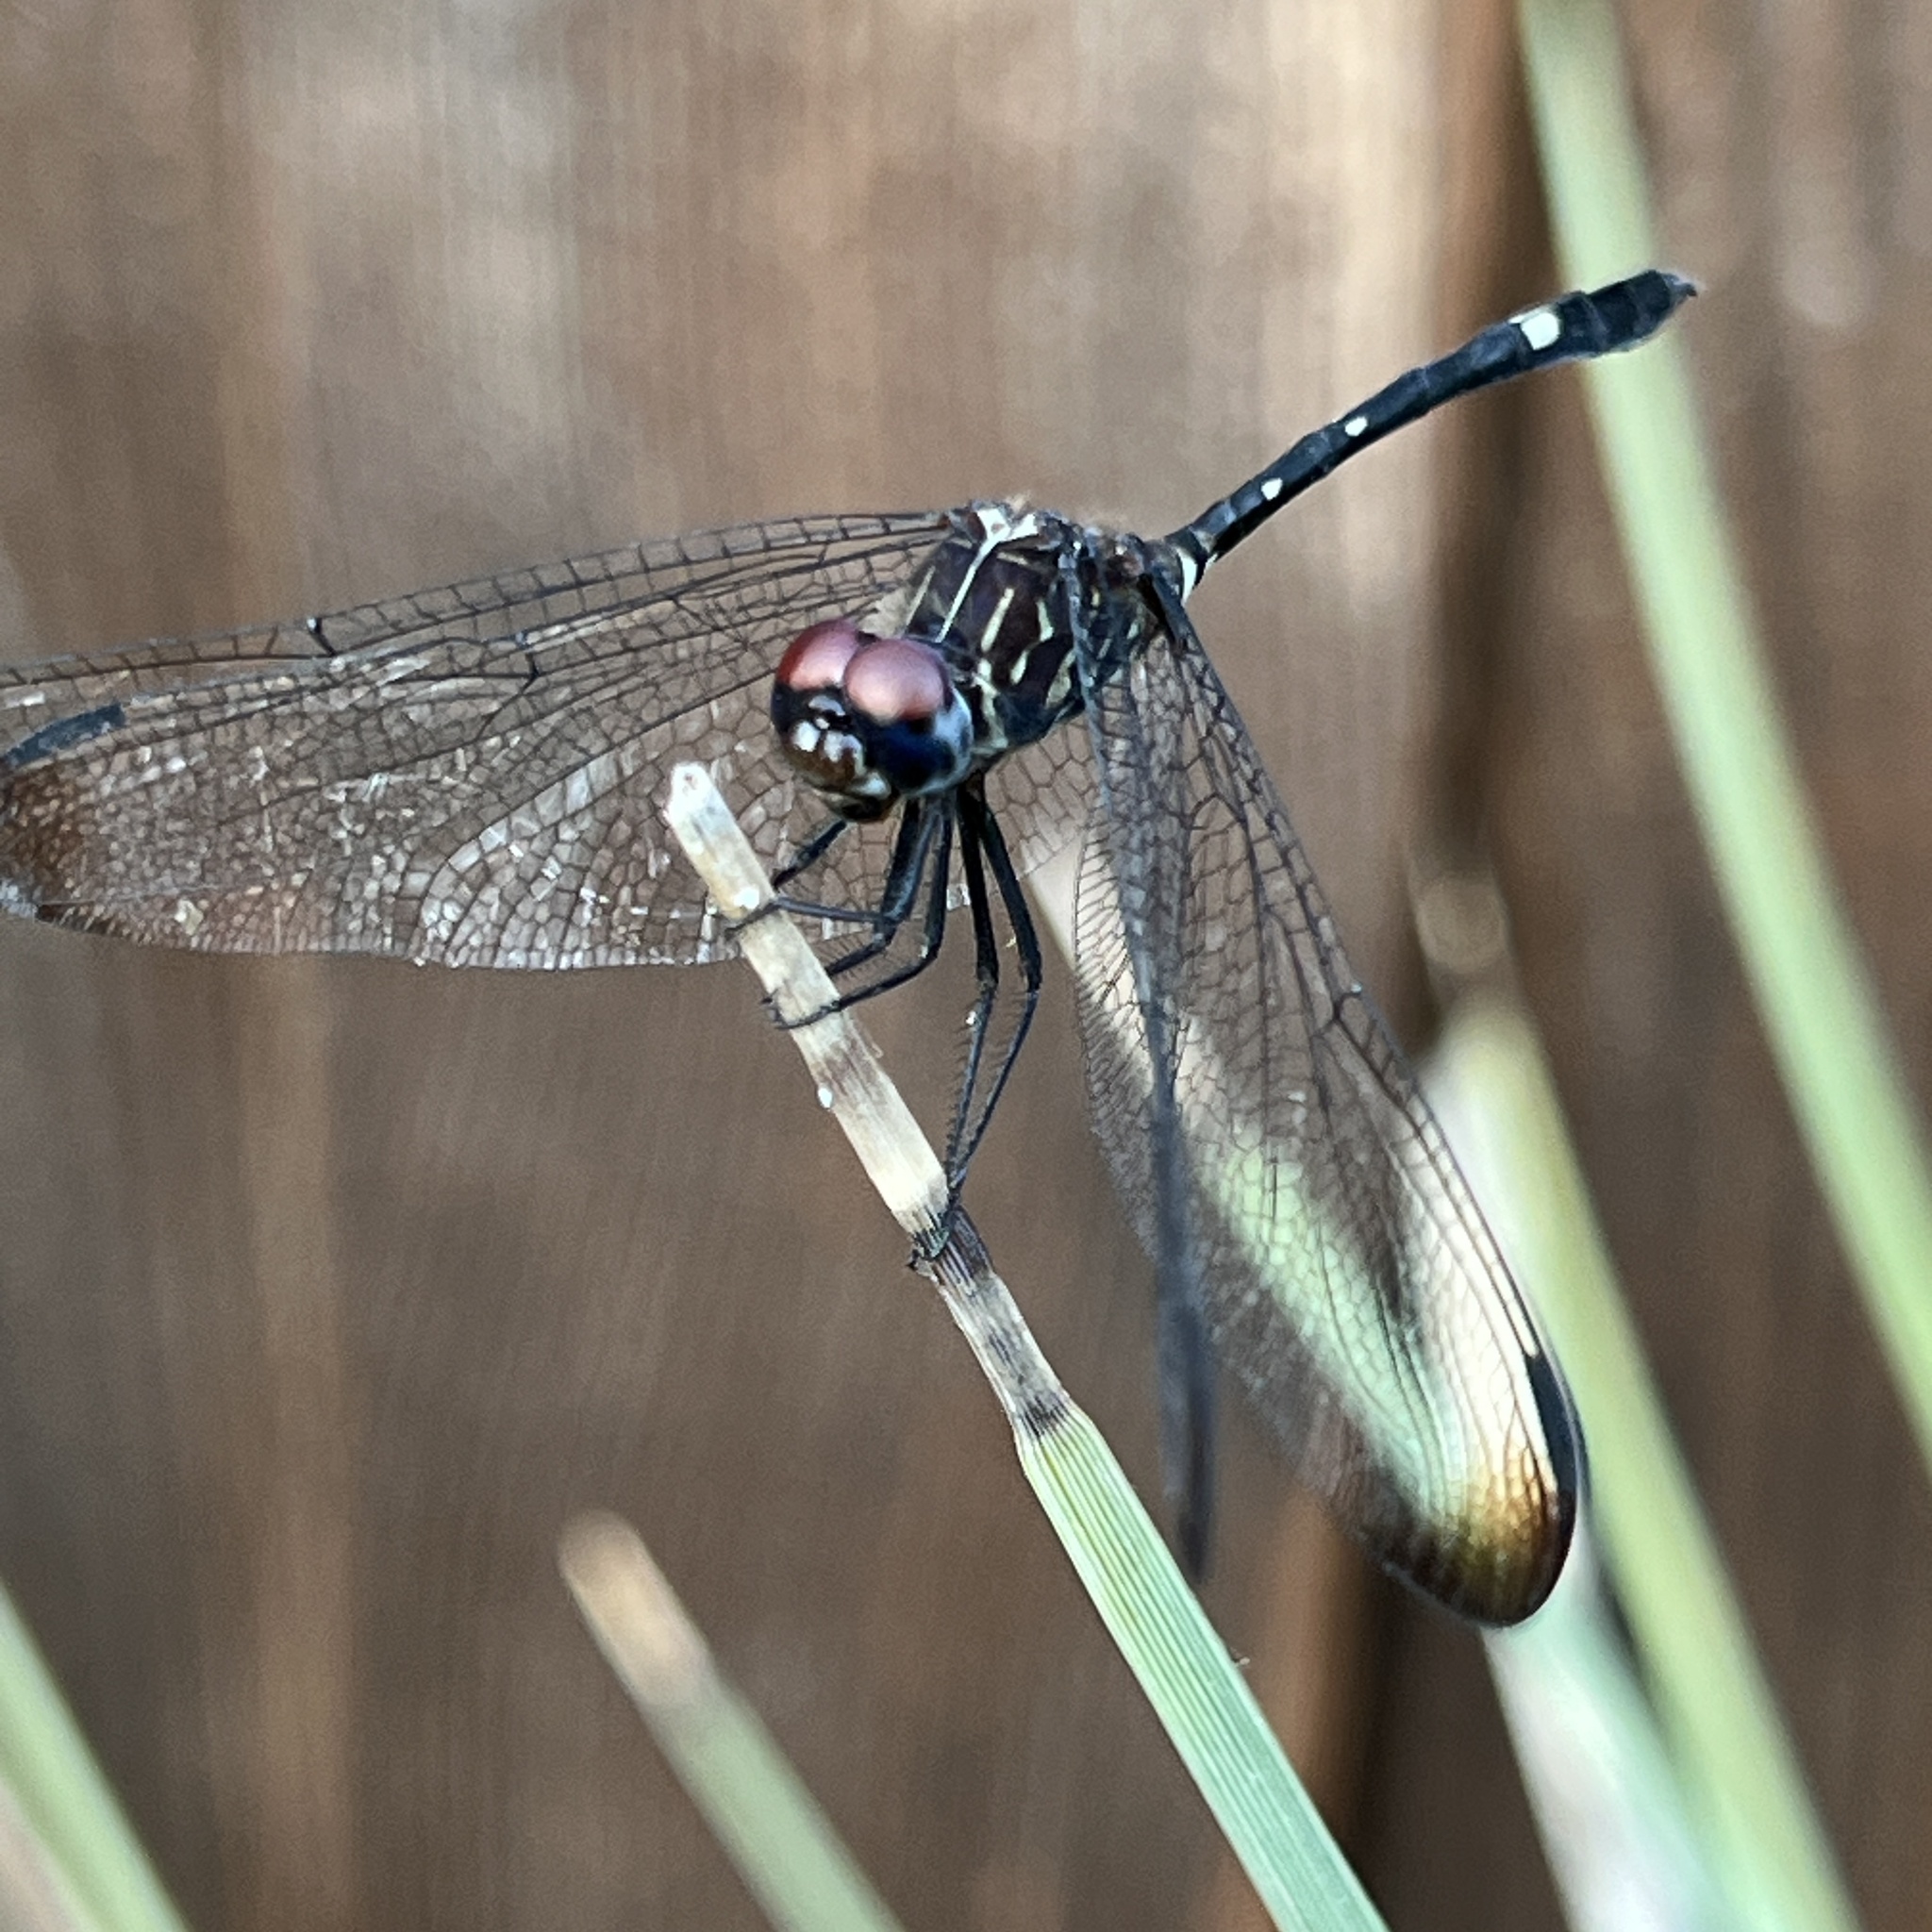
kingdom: Animalia
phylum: Arthropoda
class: Insecta
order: Odonata
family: Libellulidae
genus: Dythemis
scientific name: Dythemis velox
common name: Swift setwing
